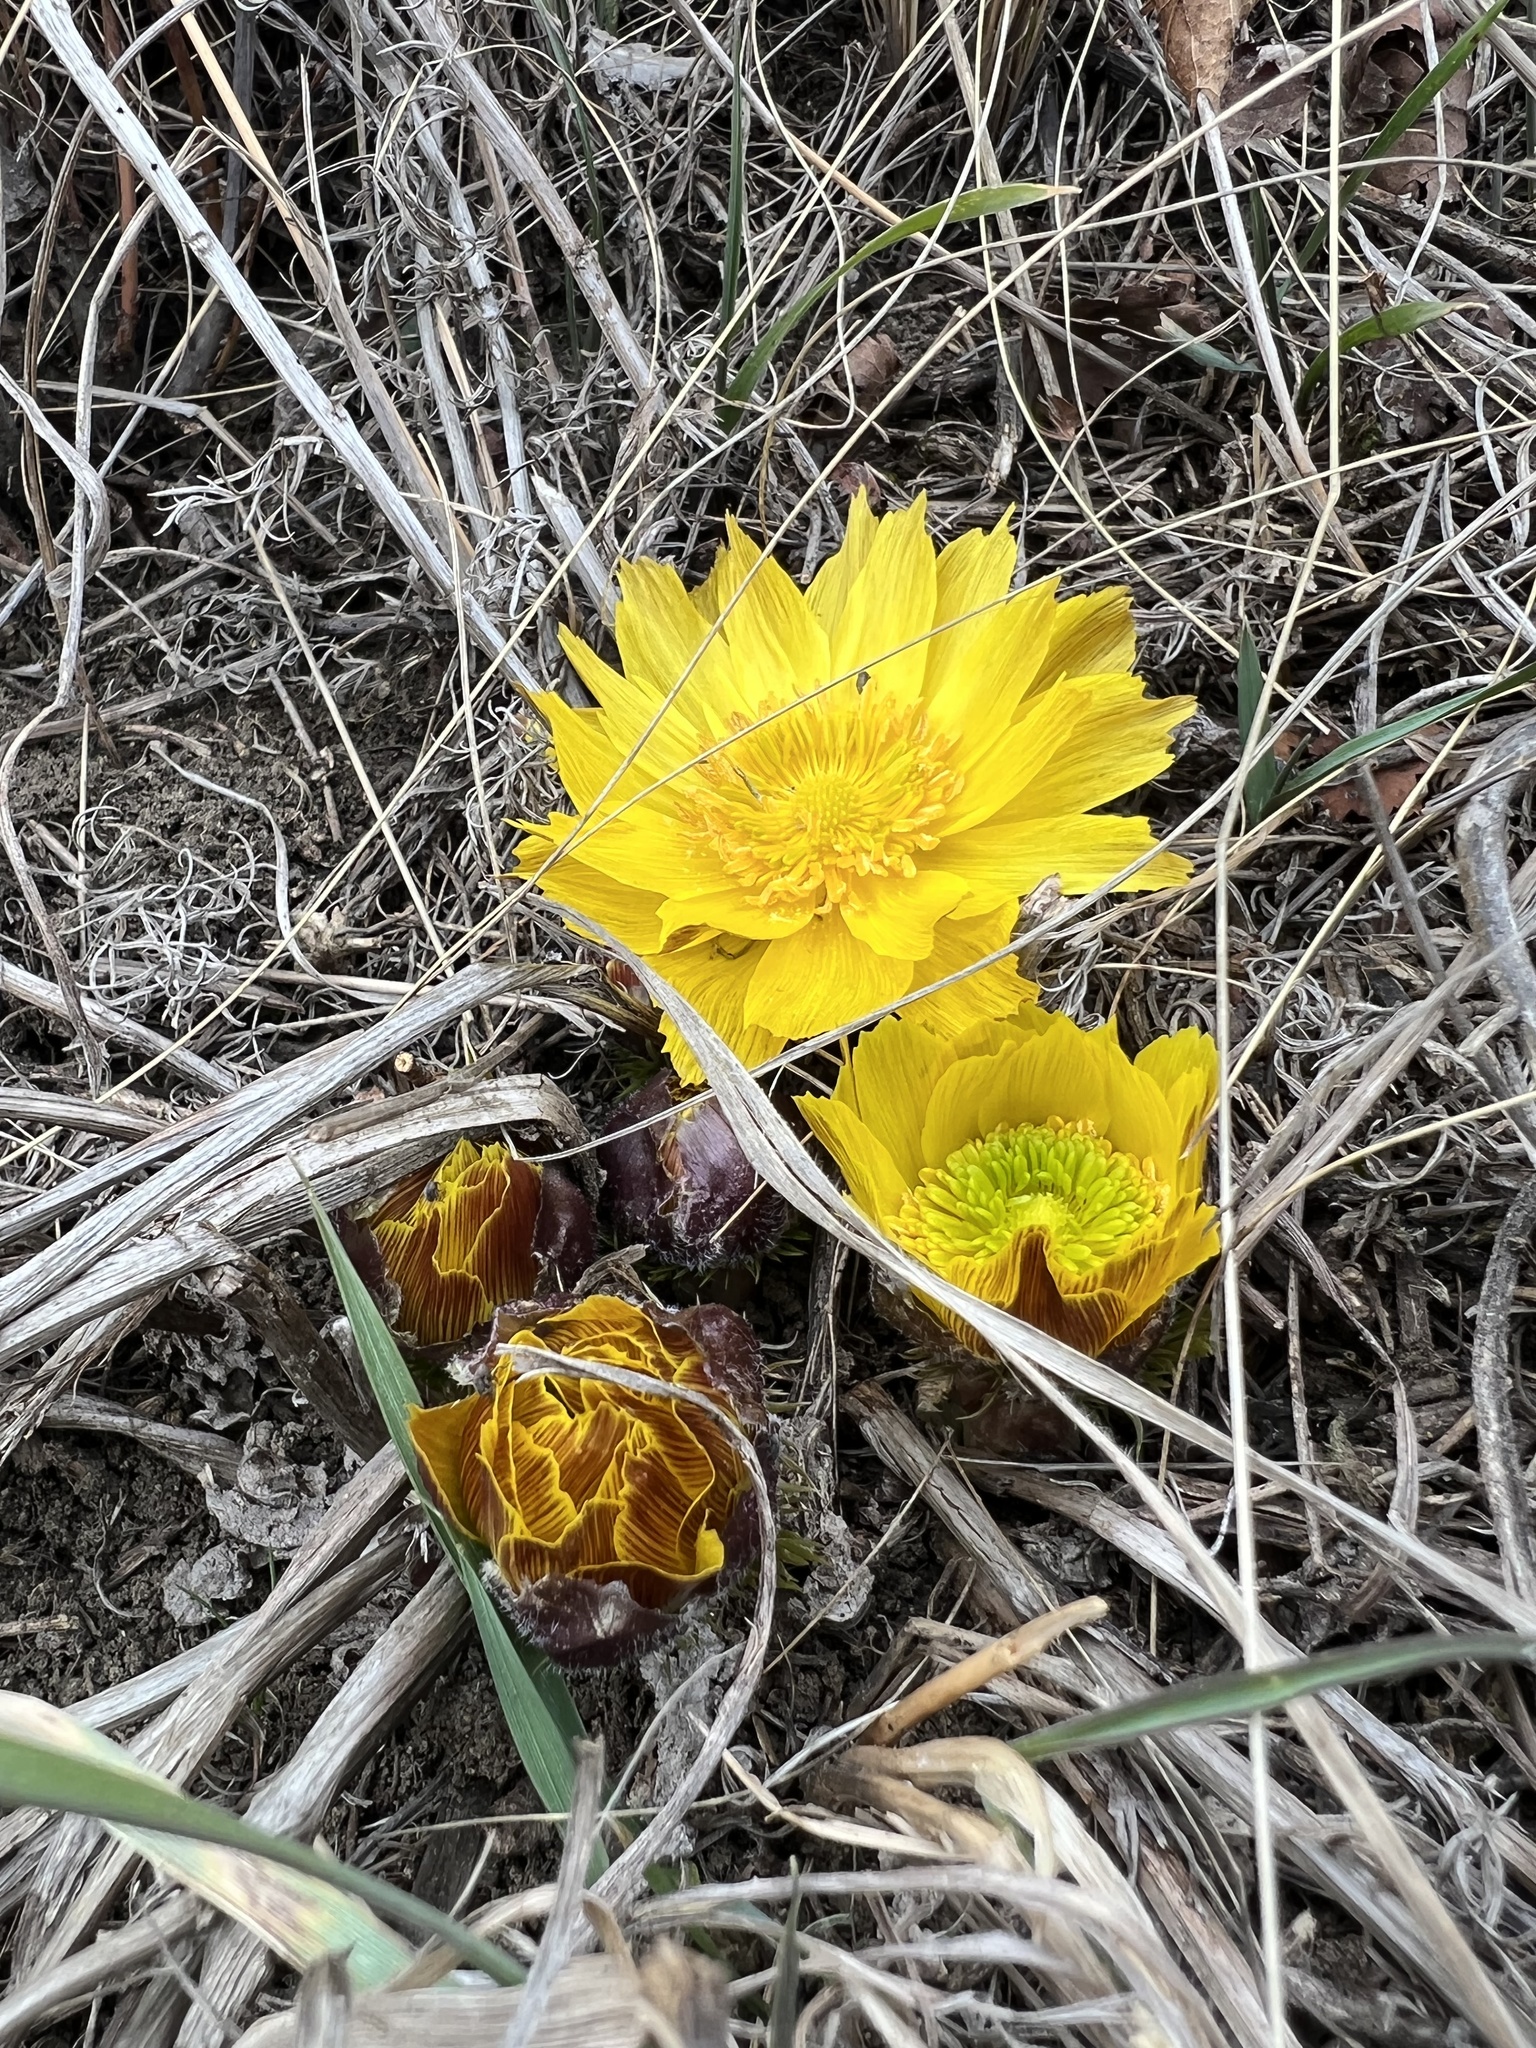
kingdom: Plantae
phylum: Tracheophyta
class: Magnoliopsida
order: Ranunculales
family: Ranunculaceae
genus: Adonis
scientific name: Adonis vernalis
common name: Yellow pheasants-eye
